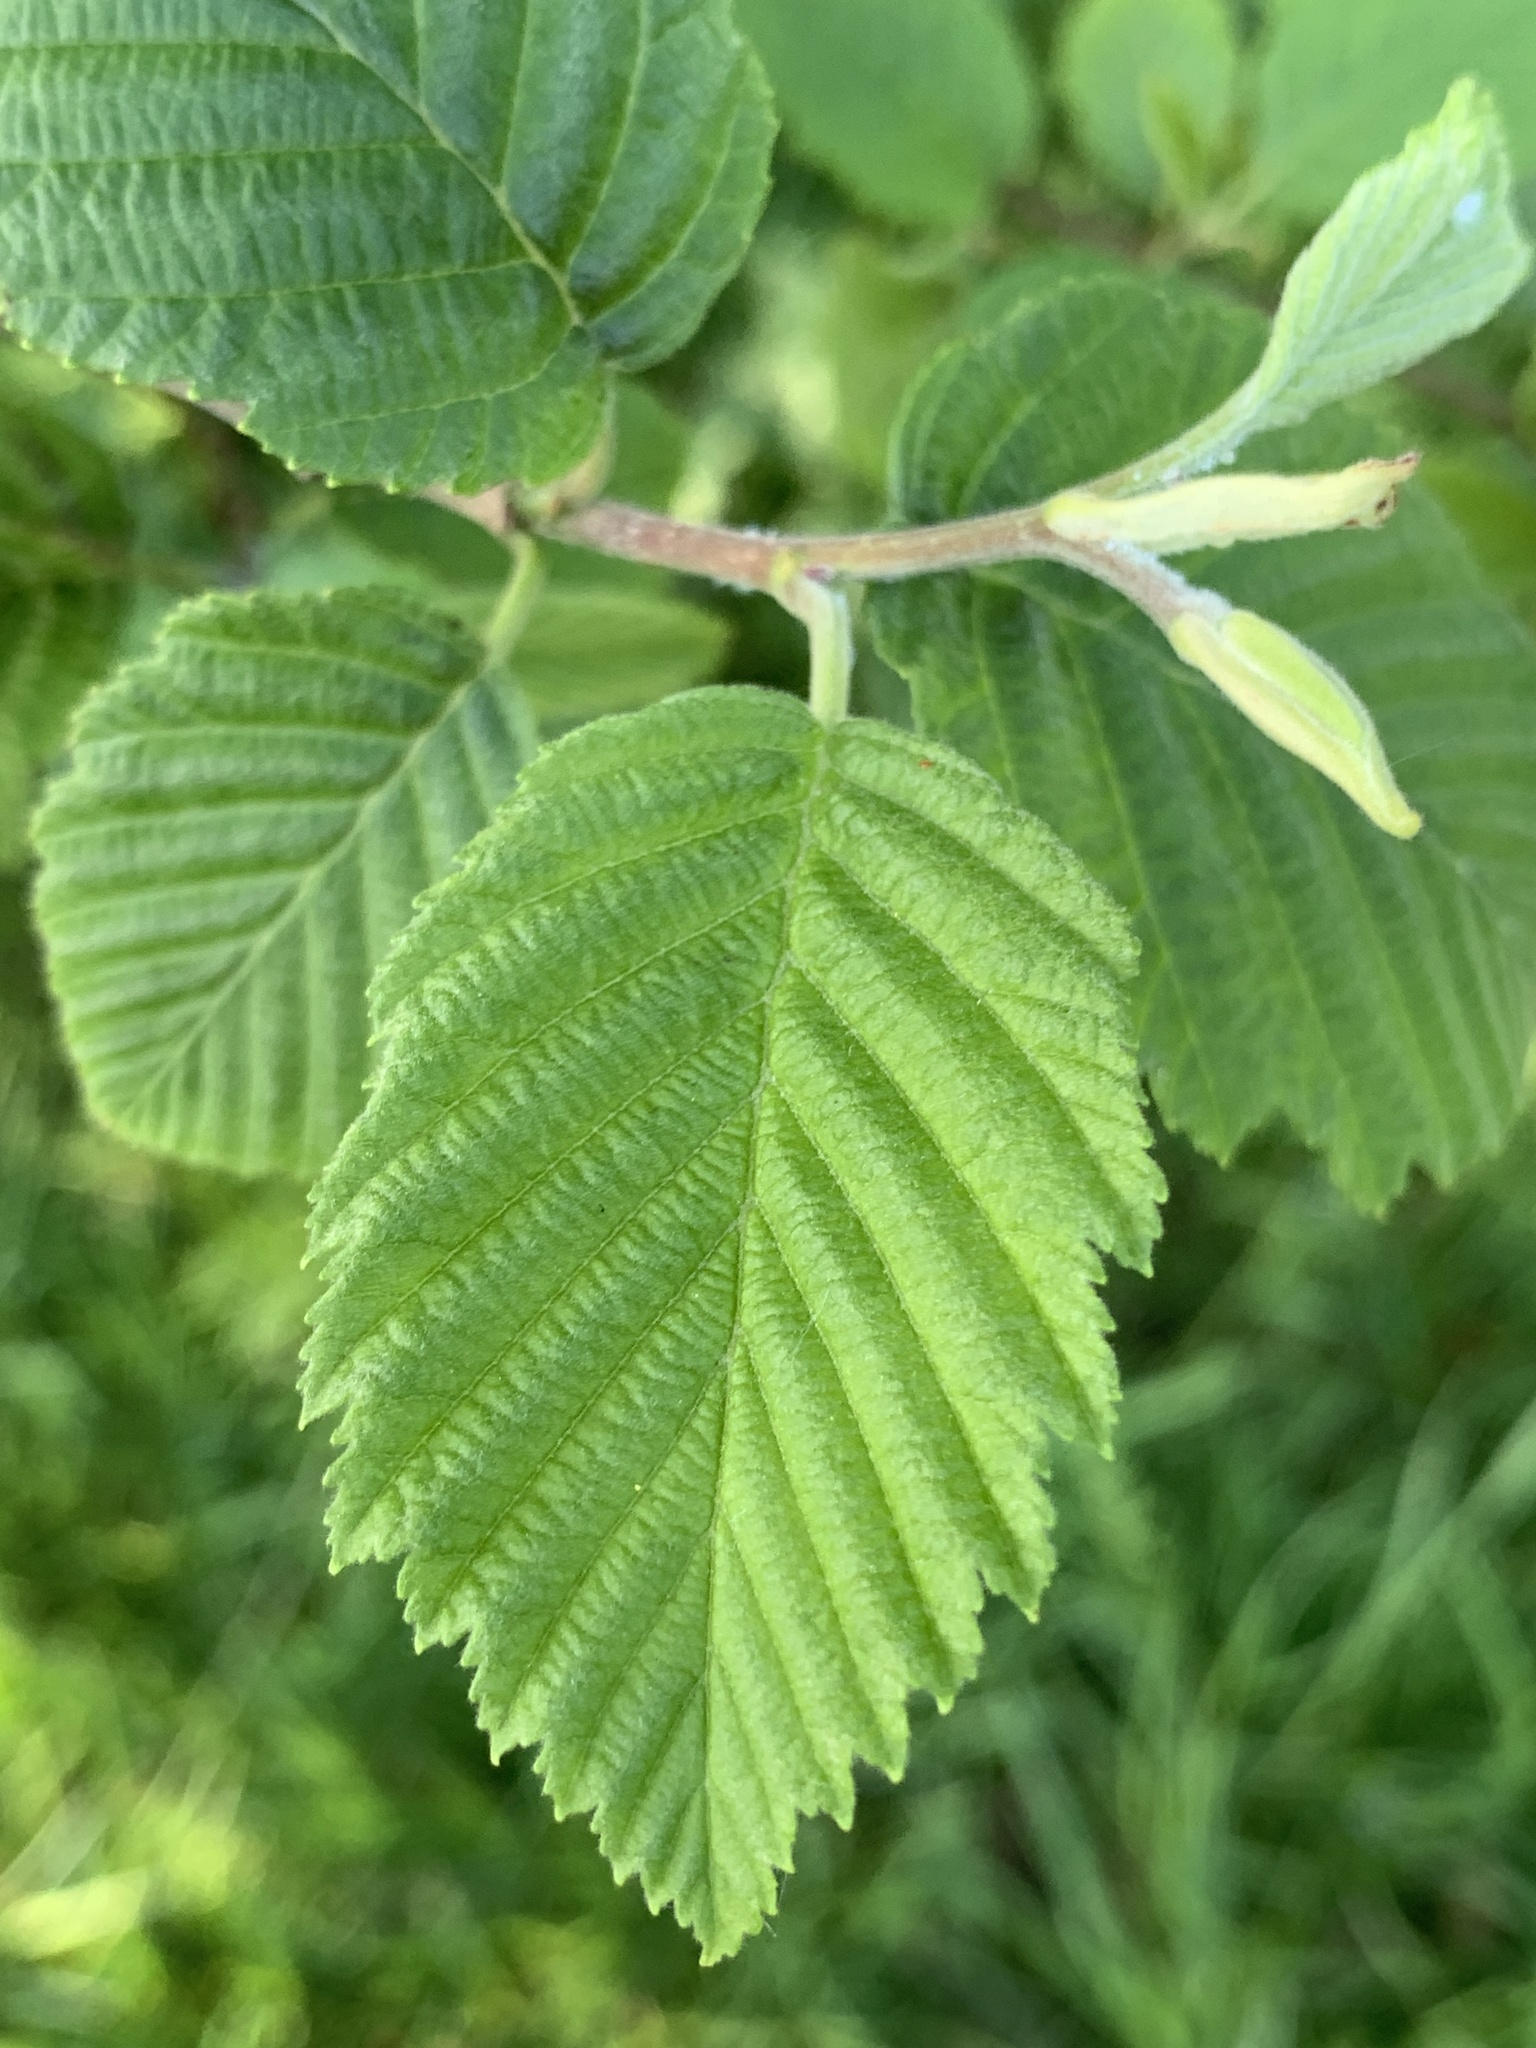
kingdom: Plantae
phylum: Tracheophyta
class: Magnoliopsida
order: Fagales
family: Betulaceae
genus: Alnus
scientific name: Alnus incana
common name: Grey alder
